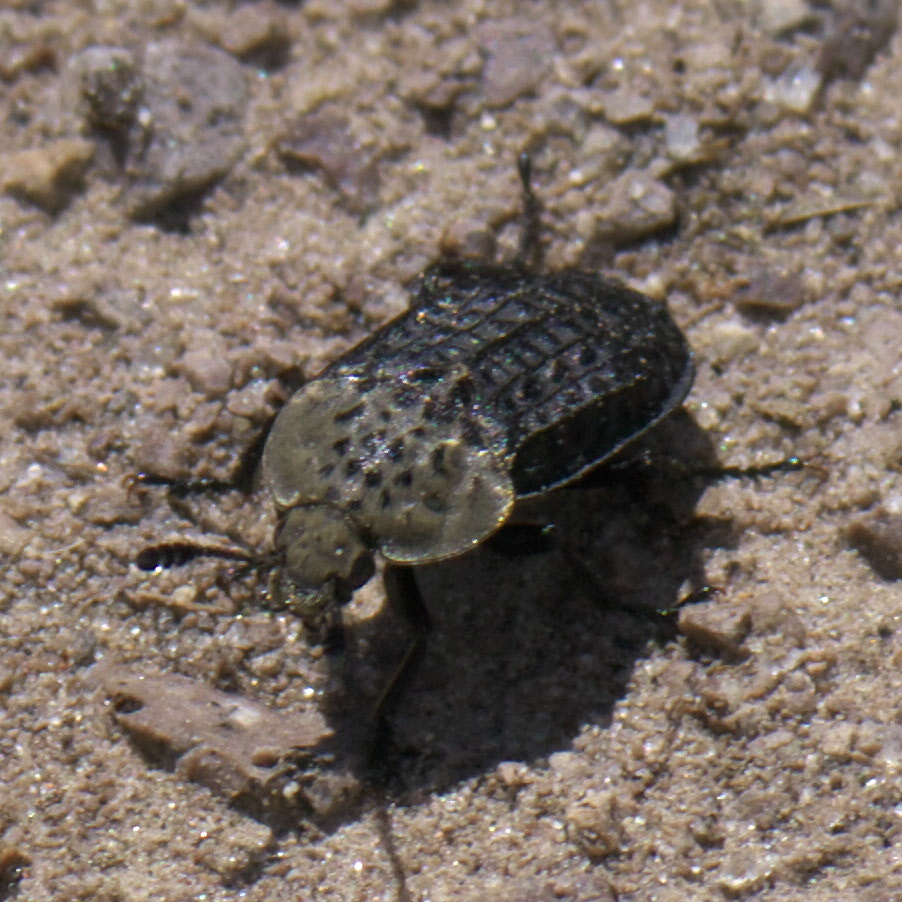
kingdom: Animalia
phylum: Arthropoda
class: Insecta
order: Coleoptera
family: Staphylinidae
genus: Thanatophilus
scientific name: Thanatophilus lapponicus
